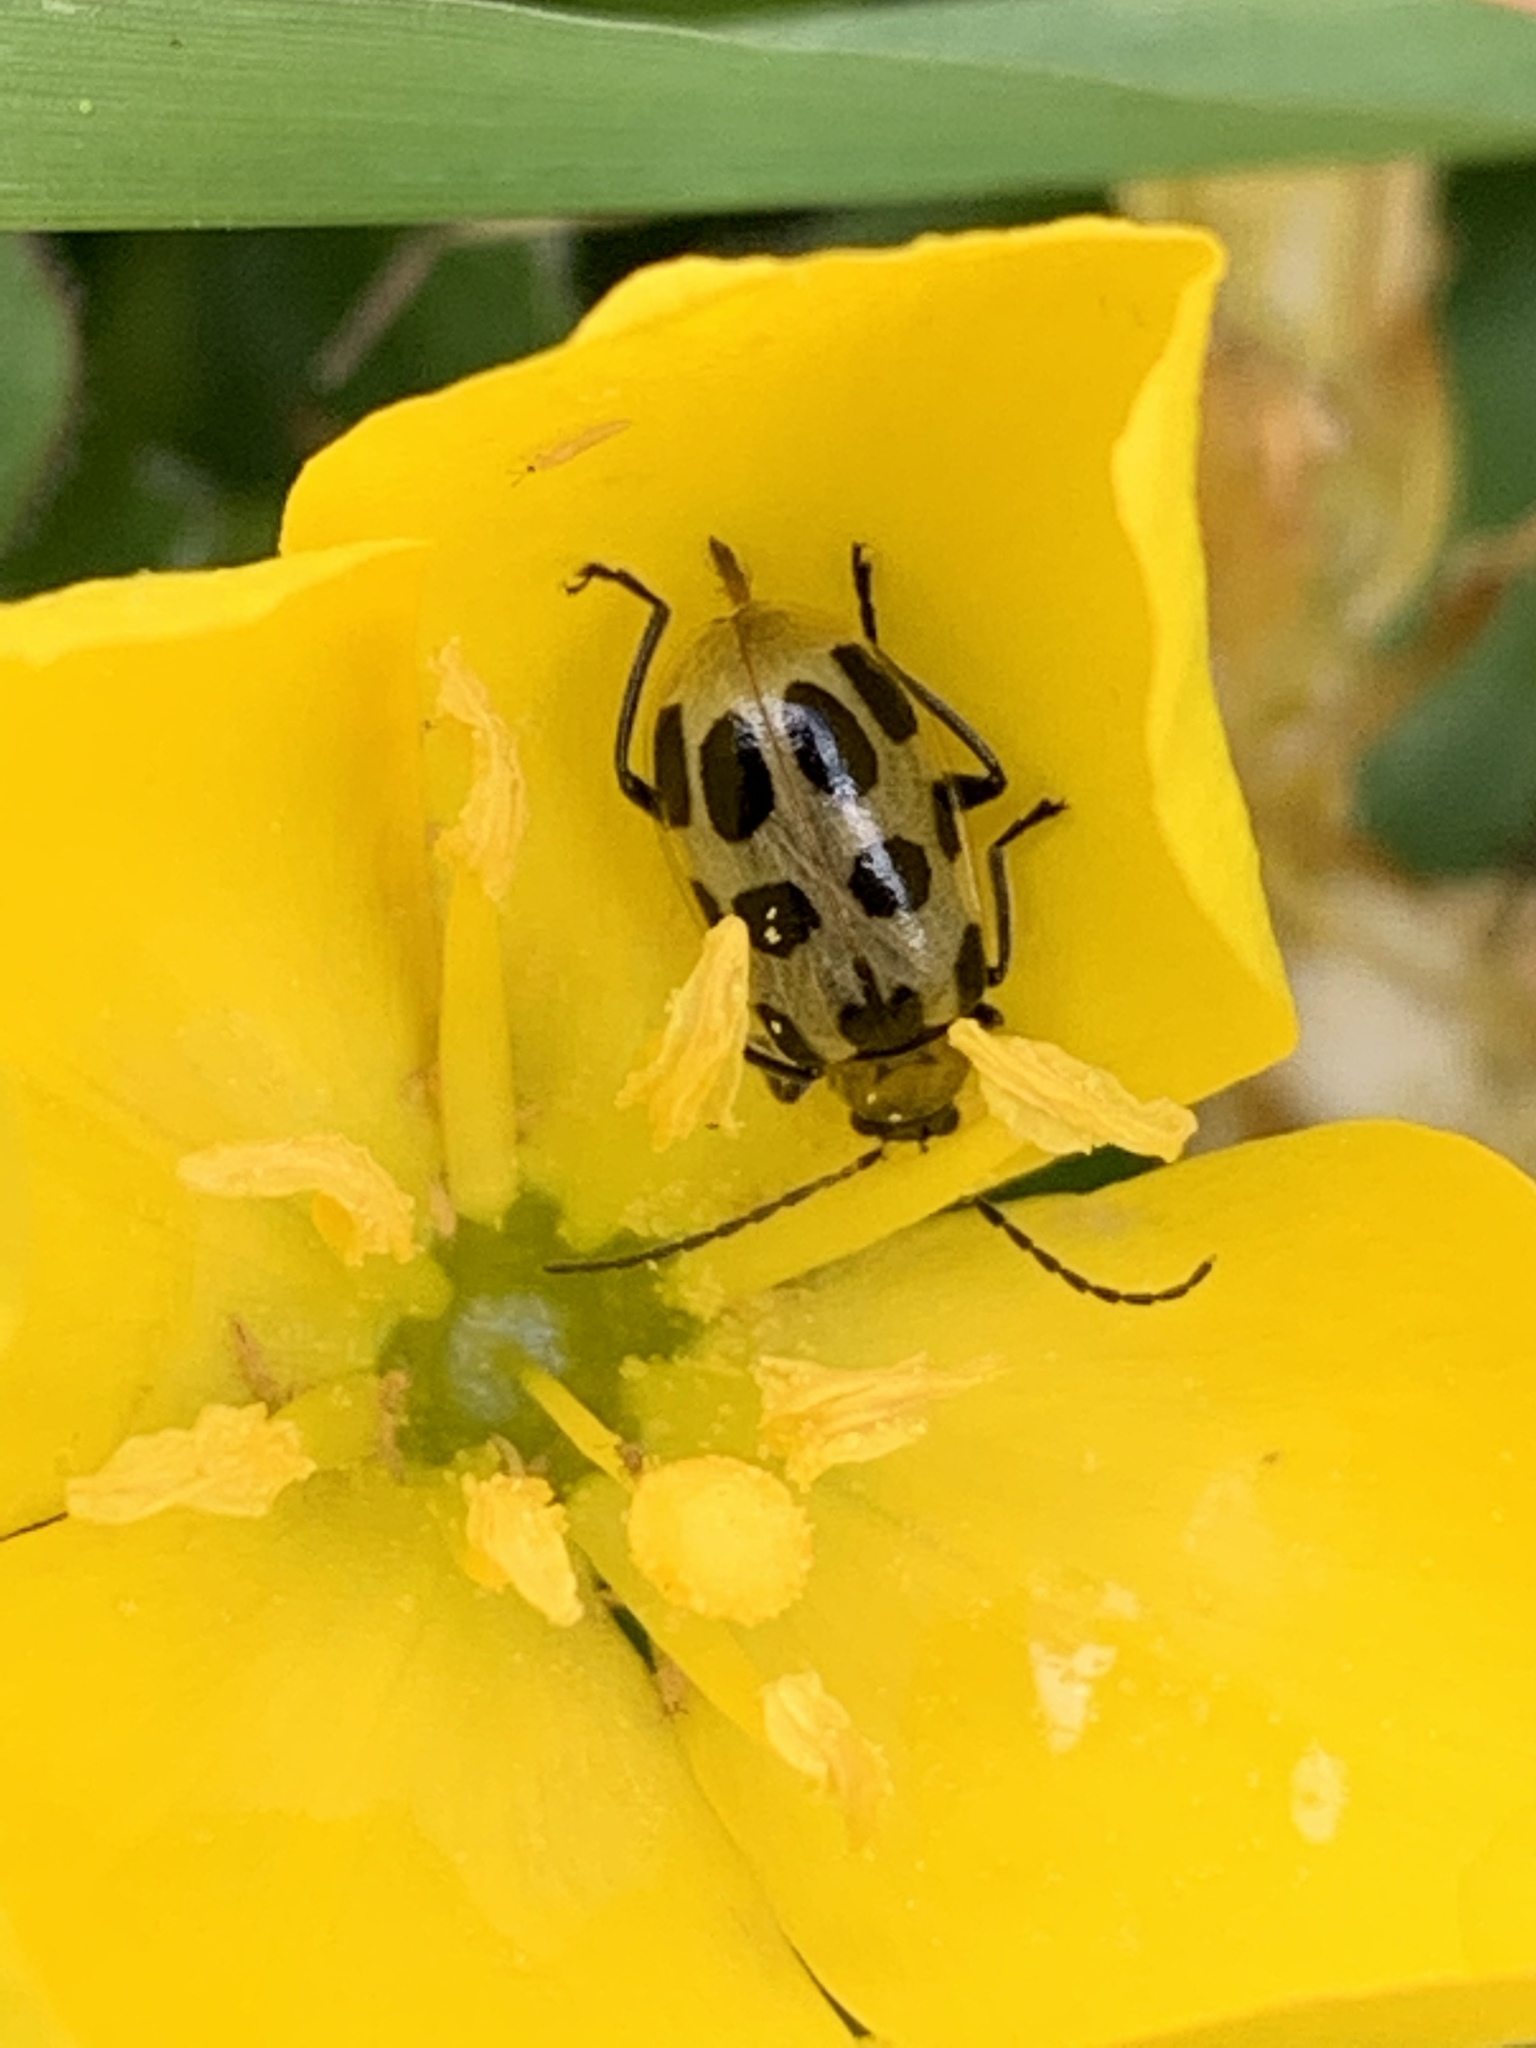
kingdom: Animalia
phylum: Arthropoda
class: Insecta
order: Coleoptera
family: Chrysomelidae
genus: Diabrotica
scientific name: Diabrotica undecimpunctata
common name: Spotted cucumber beetle
